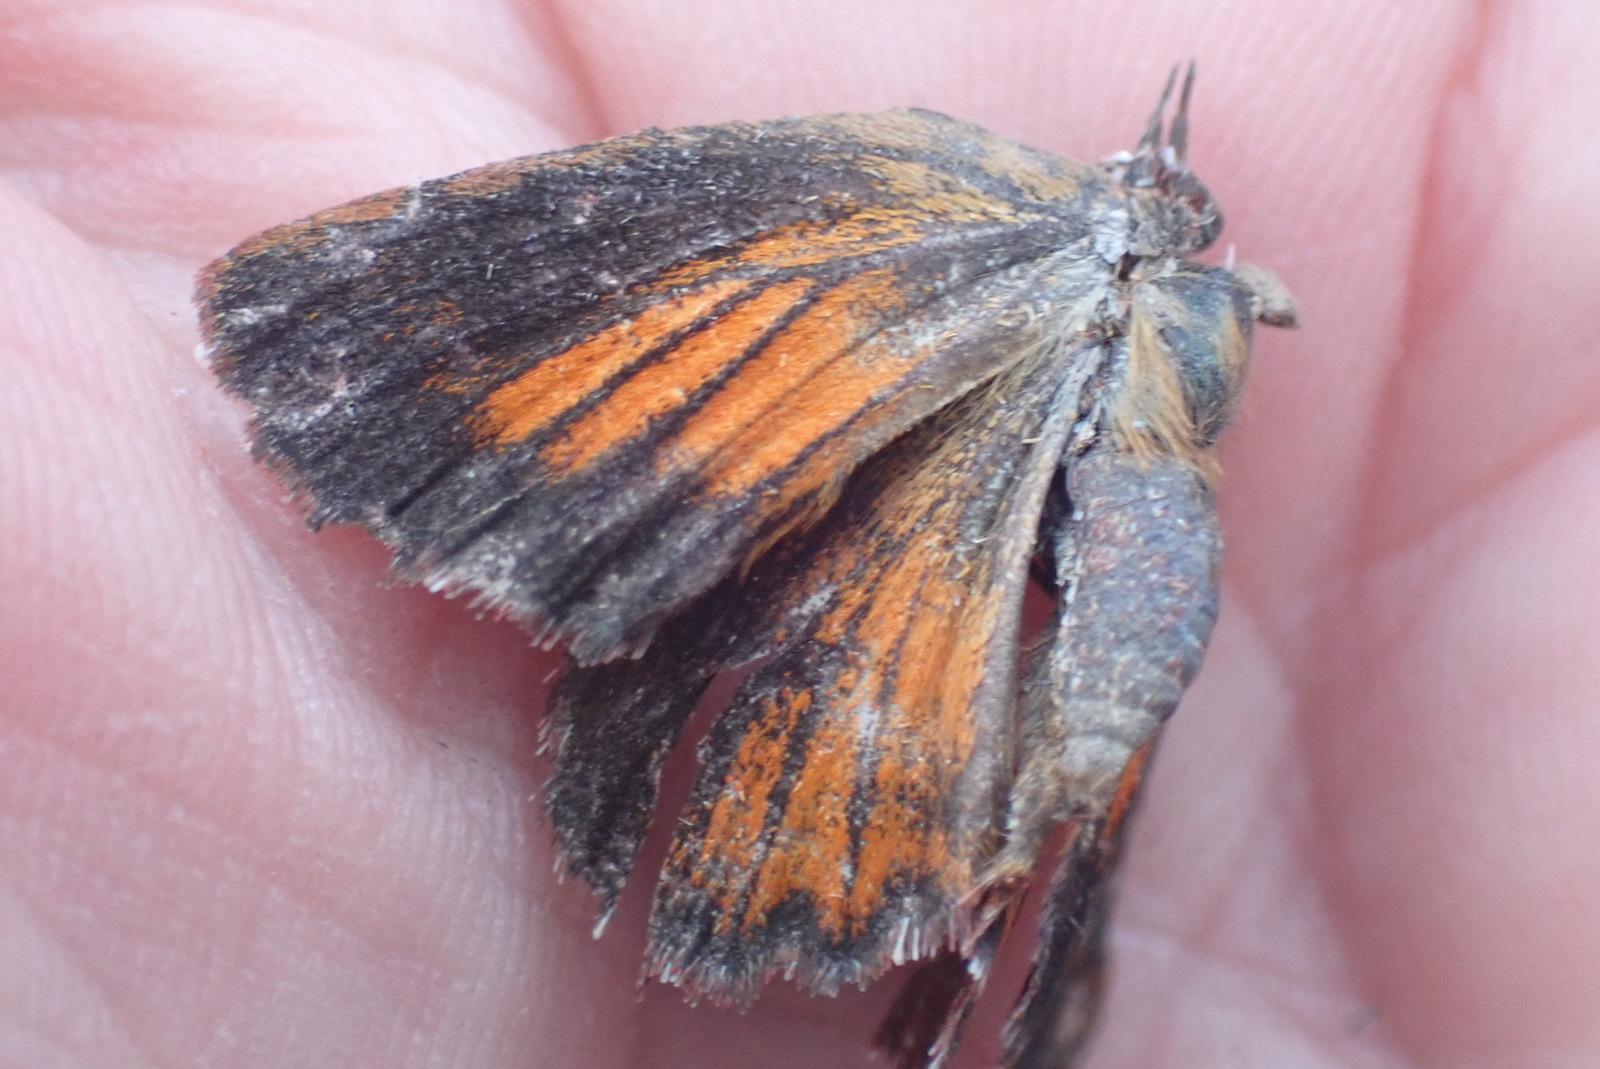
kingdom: Animalia
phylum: Arthropoda
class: Insecta
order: Lepidoptera
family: Lycaenidae
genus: Aloeides
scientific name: Aloeides thyra
